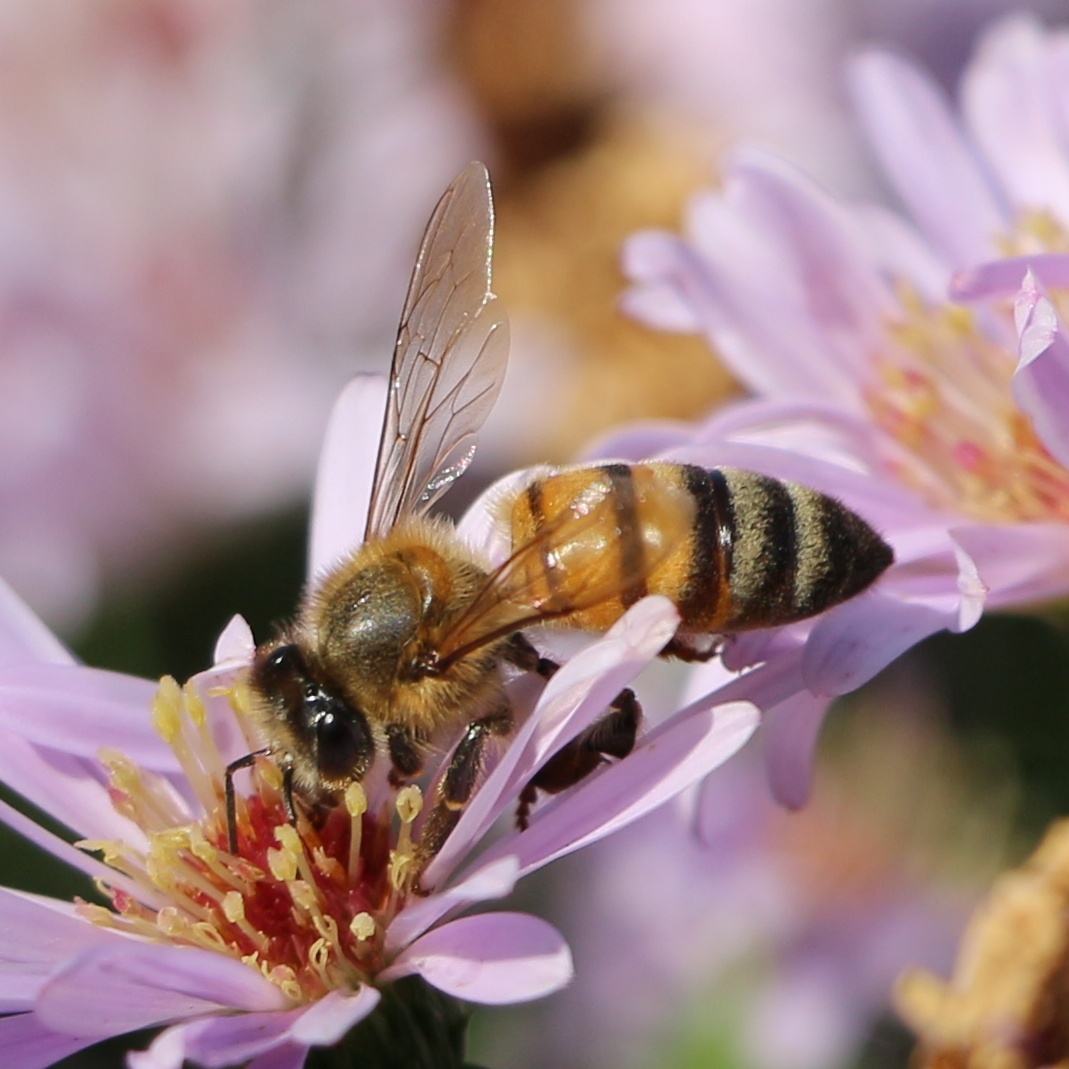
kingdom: Animalia
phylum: Arthropoda
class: Insecta
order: Hymenoptera
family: Apidae
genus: Apis
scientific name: Apis mellifera
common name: Honey bee
